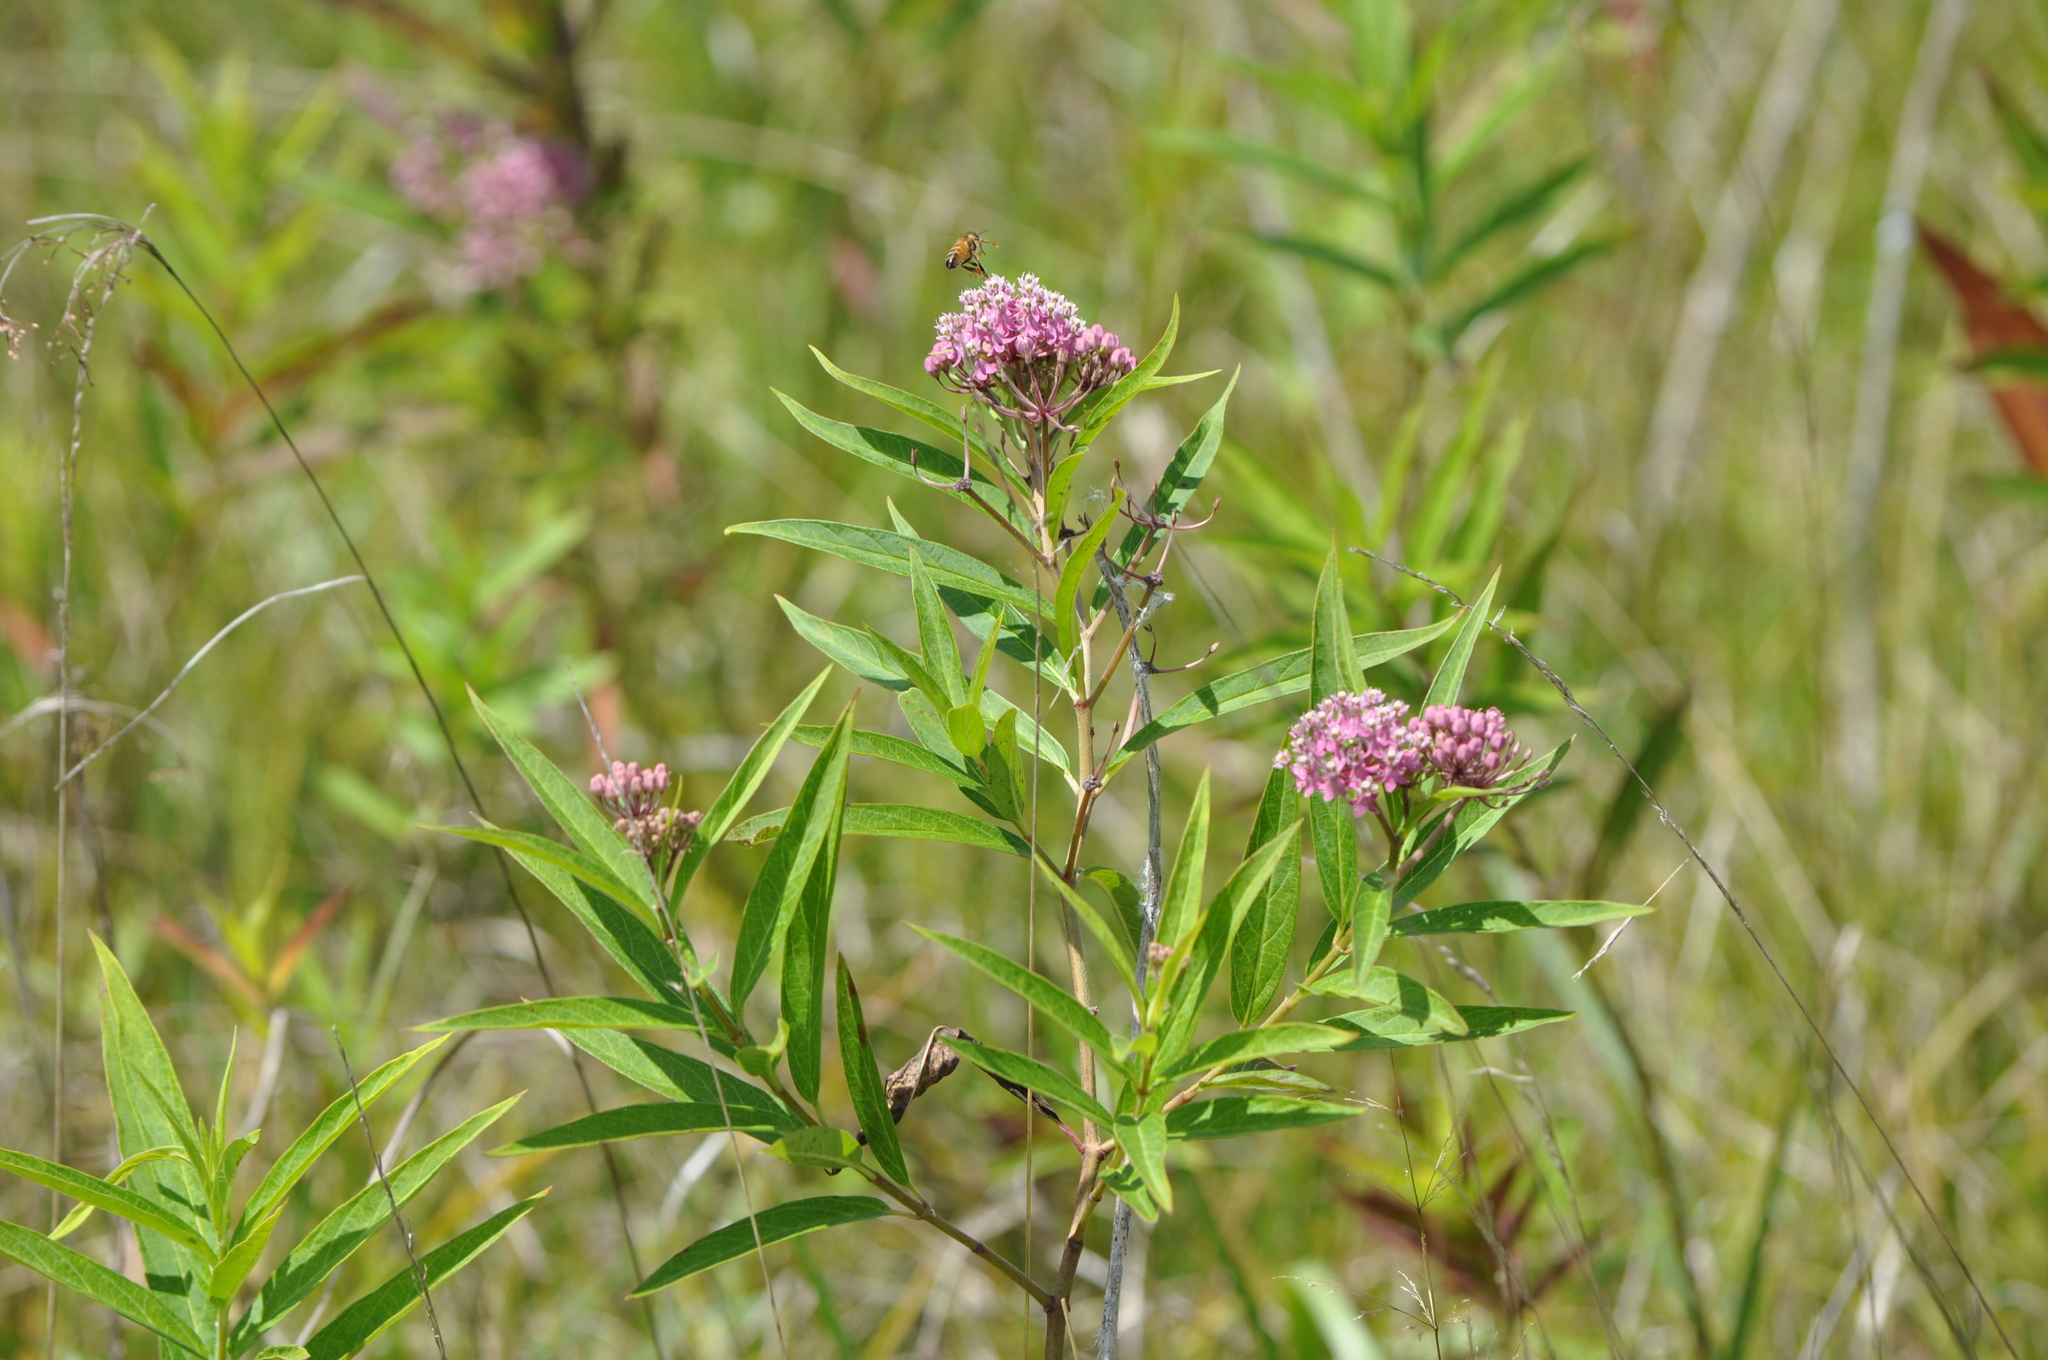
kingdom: Plantae
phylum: Tracheophyta
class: Magnoliopsida
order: Gentianales
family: Apocynaceae
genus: Asclepias
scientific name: Asclepias incarnata
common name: Swamp milkweed
